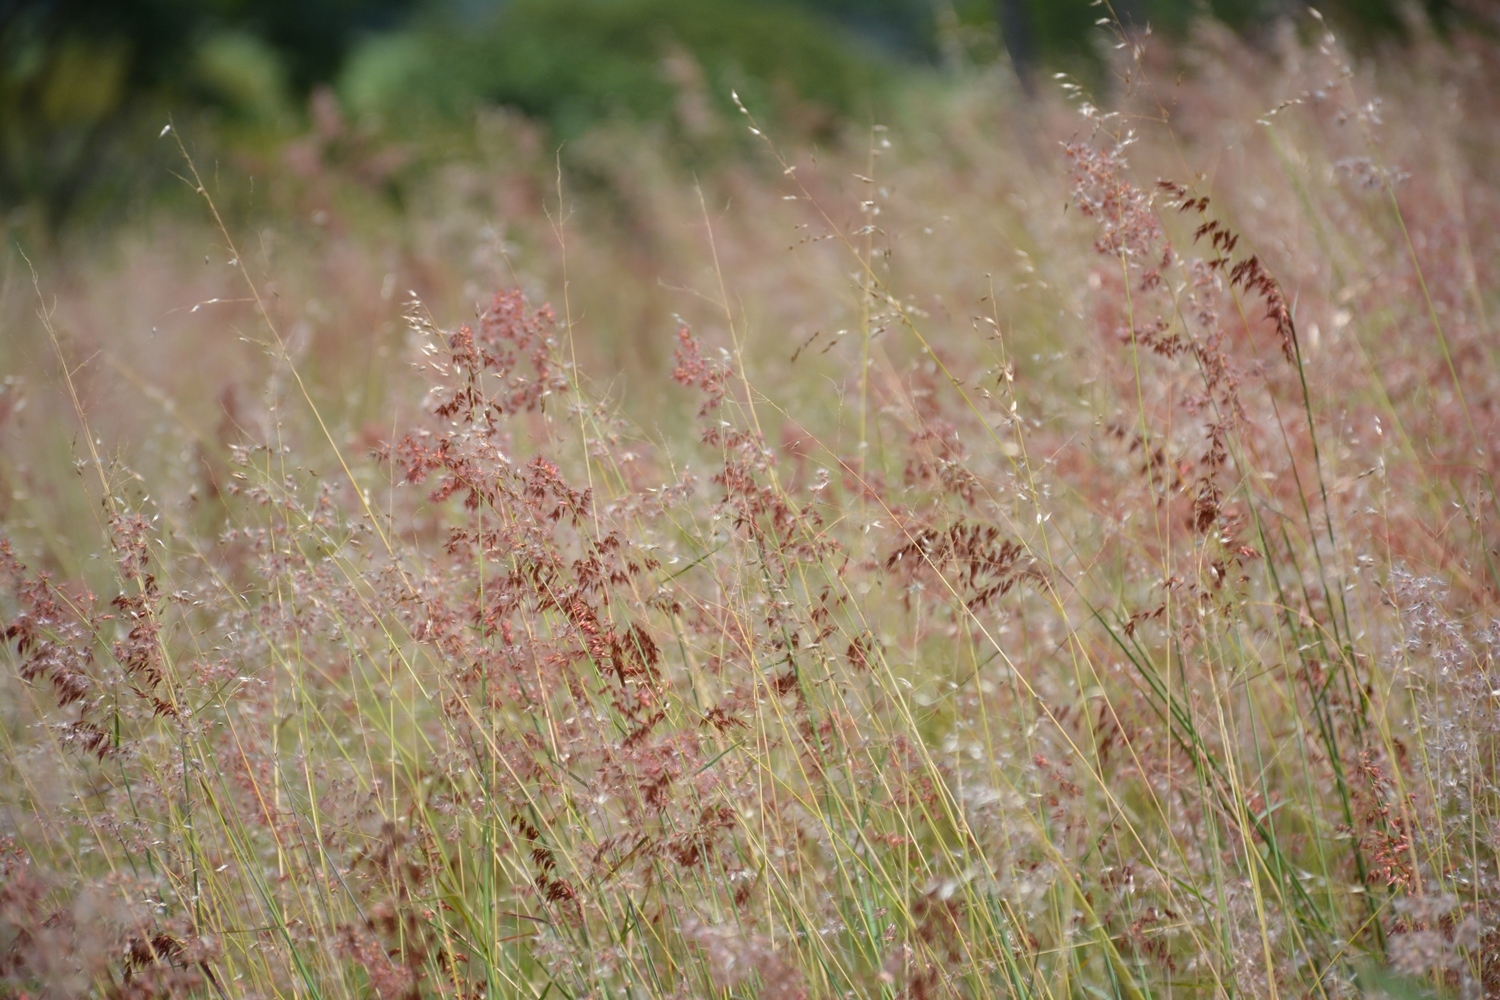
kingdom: Plantae
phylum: Tracheophyta
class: Liliopsida
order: Poales
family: Poaceae
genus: Melinis
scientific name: Melinis repens
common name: Rose natal grass
